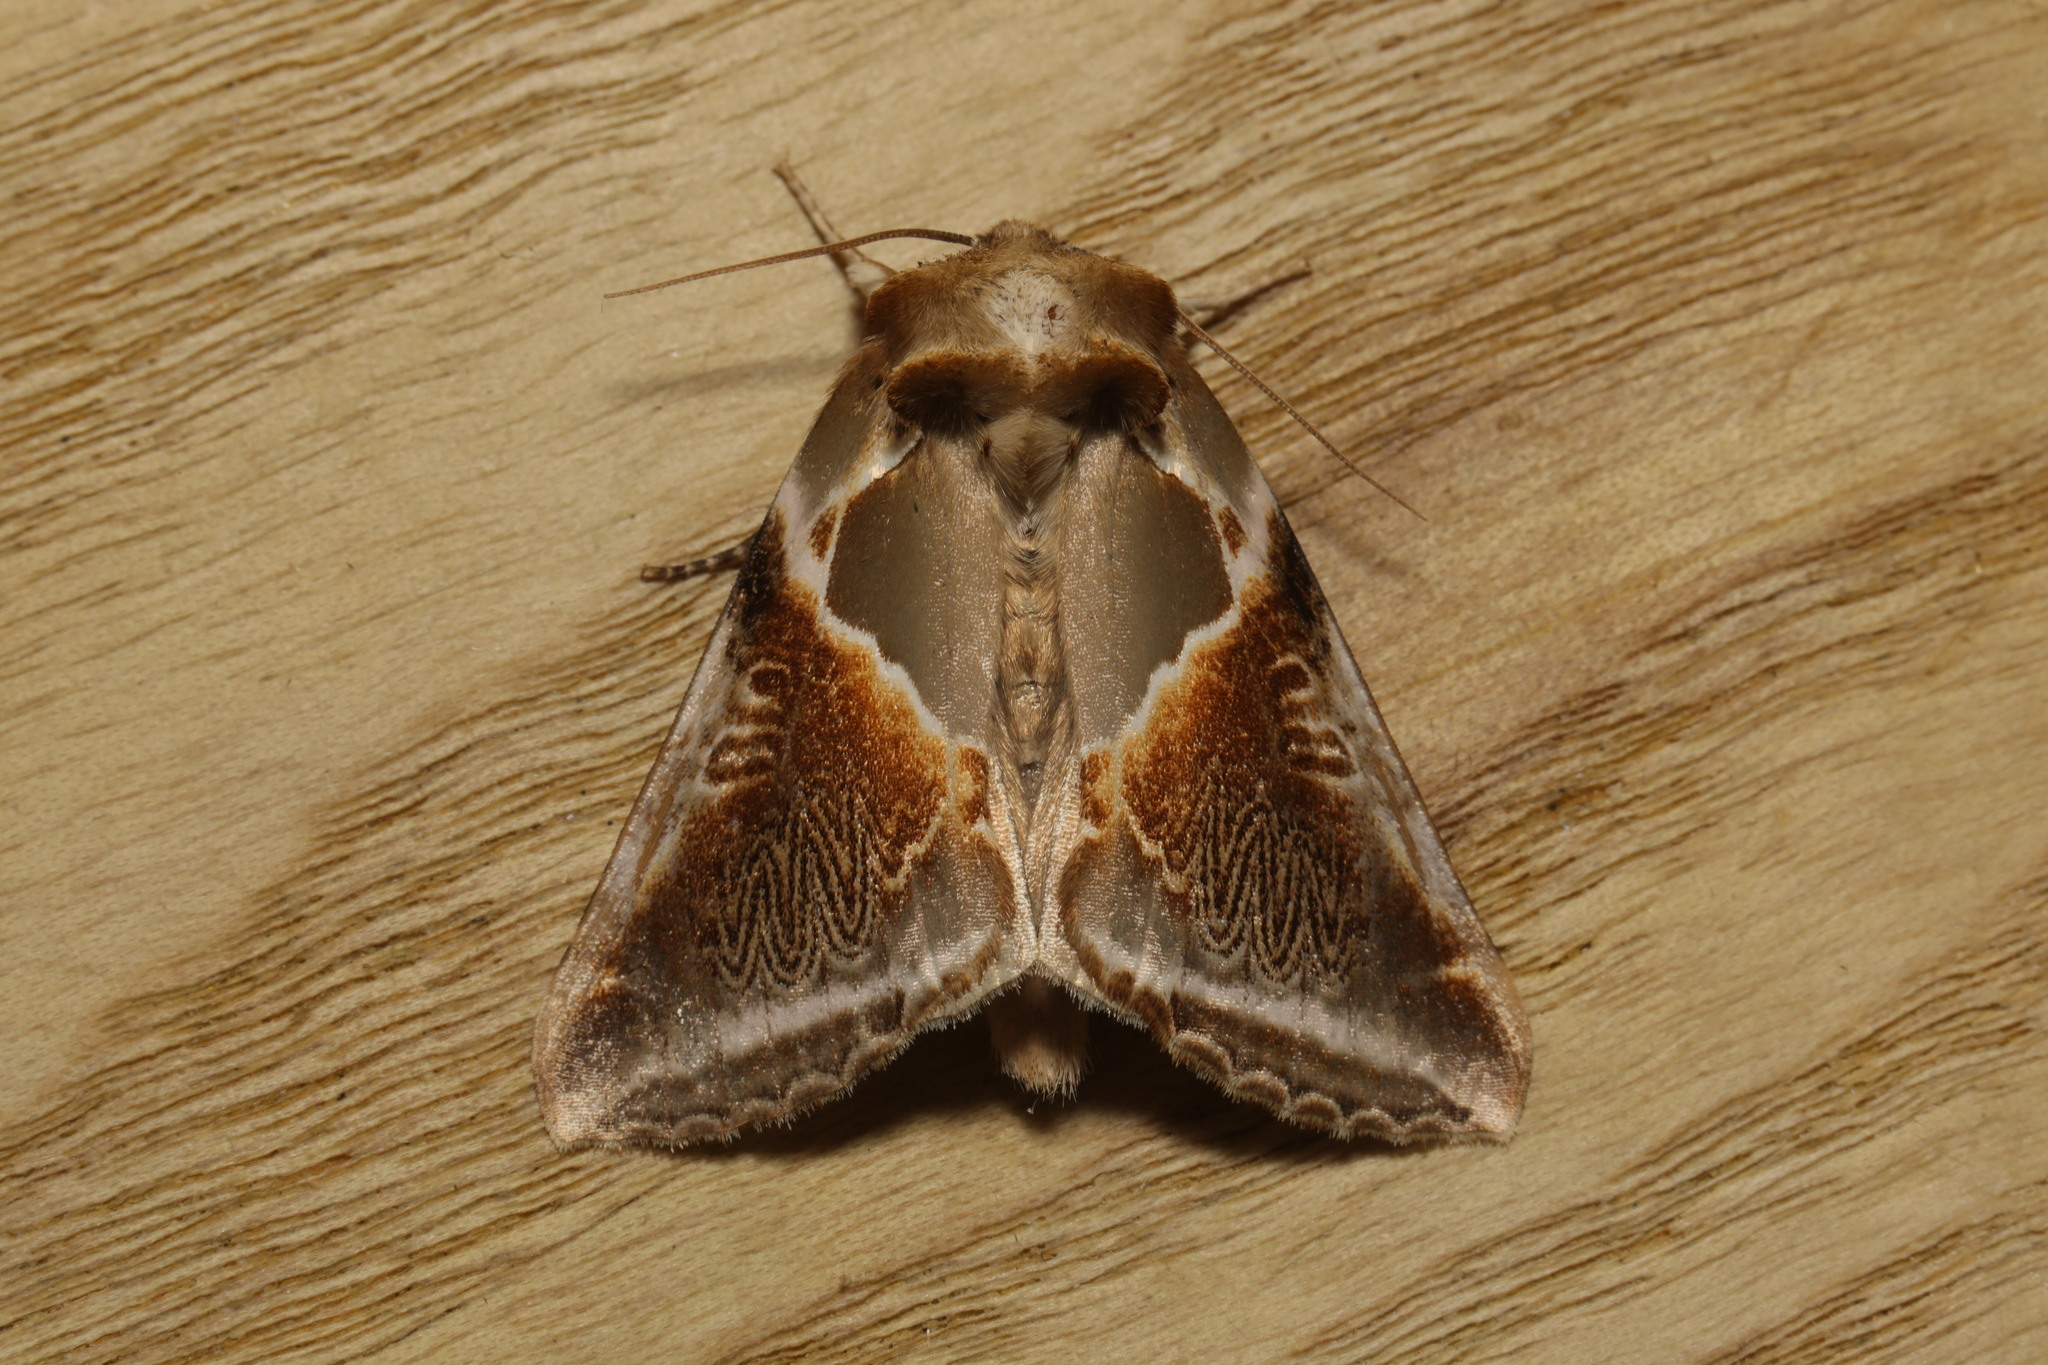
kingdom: Animalia
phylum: Arthropoda
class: Insecta
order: Lepidoptera
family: Drepanidae
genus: Habrosyne
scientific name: Habrosyne pyritoides
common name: Buff arches
